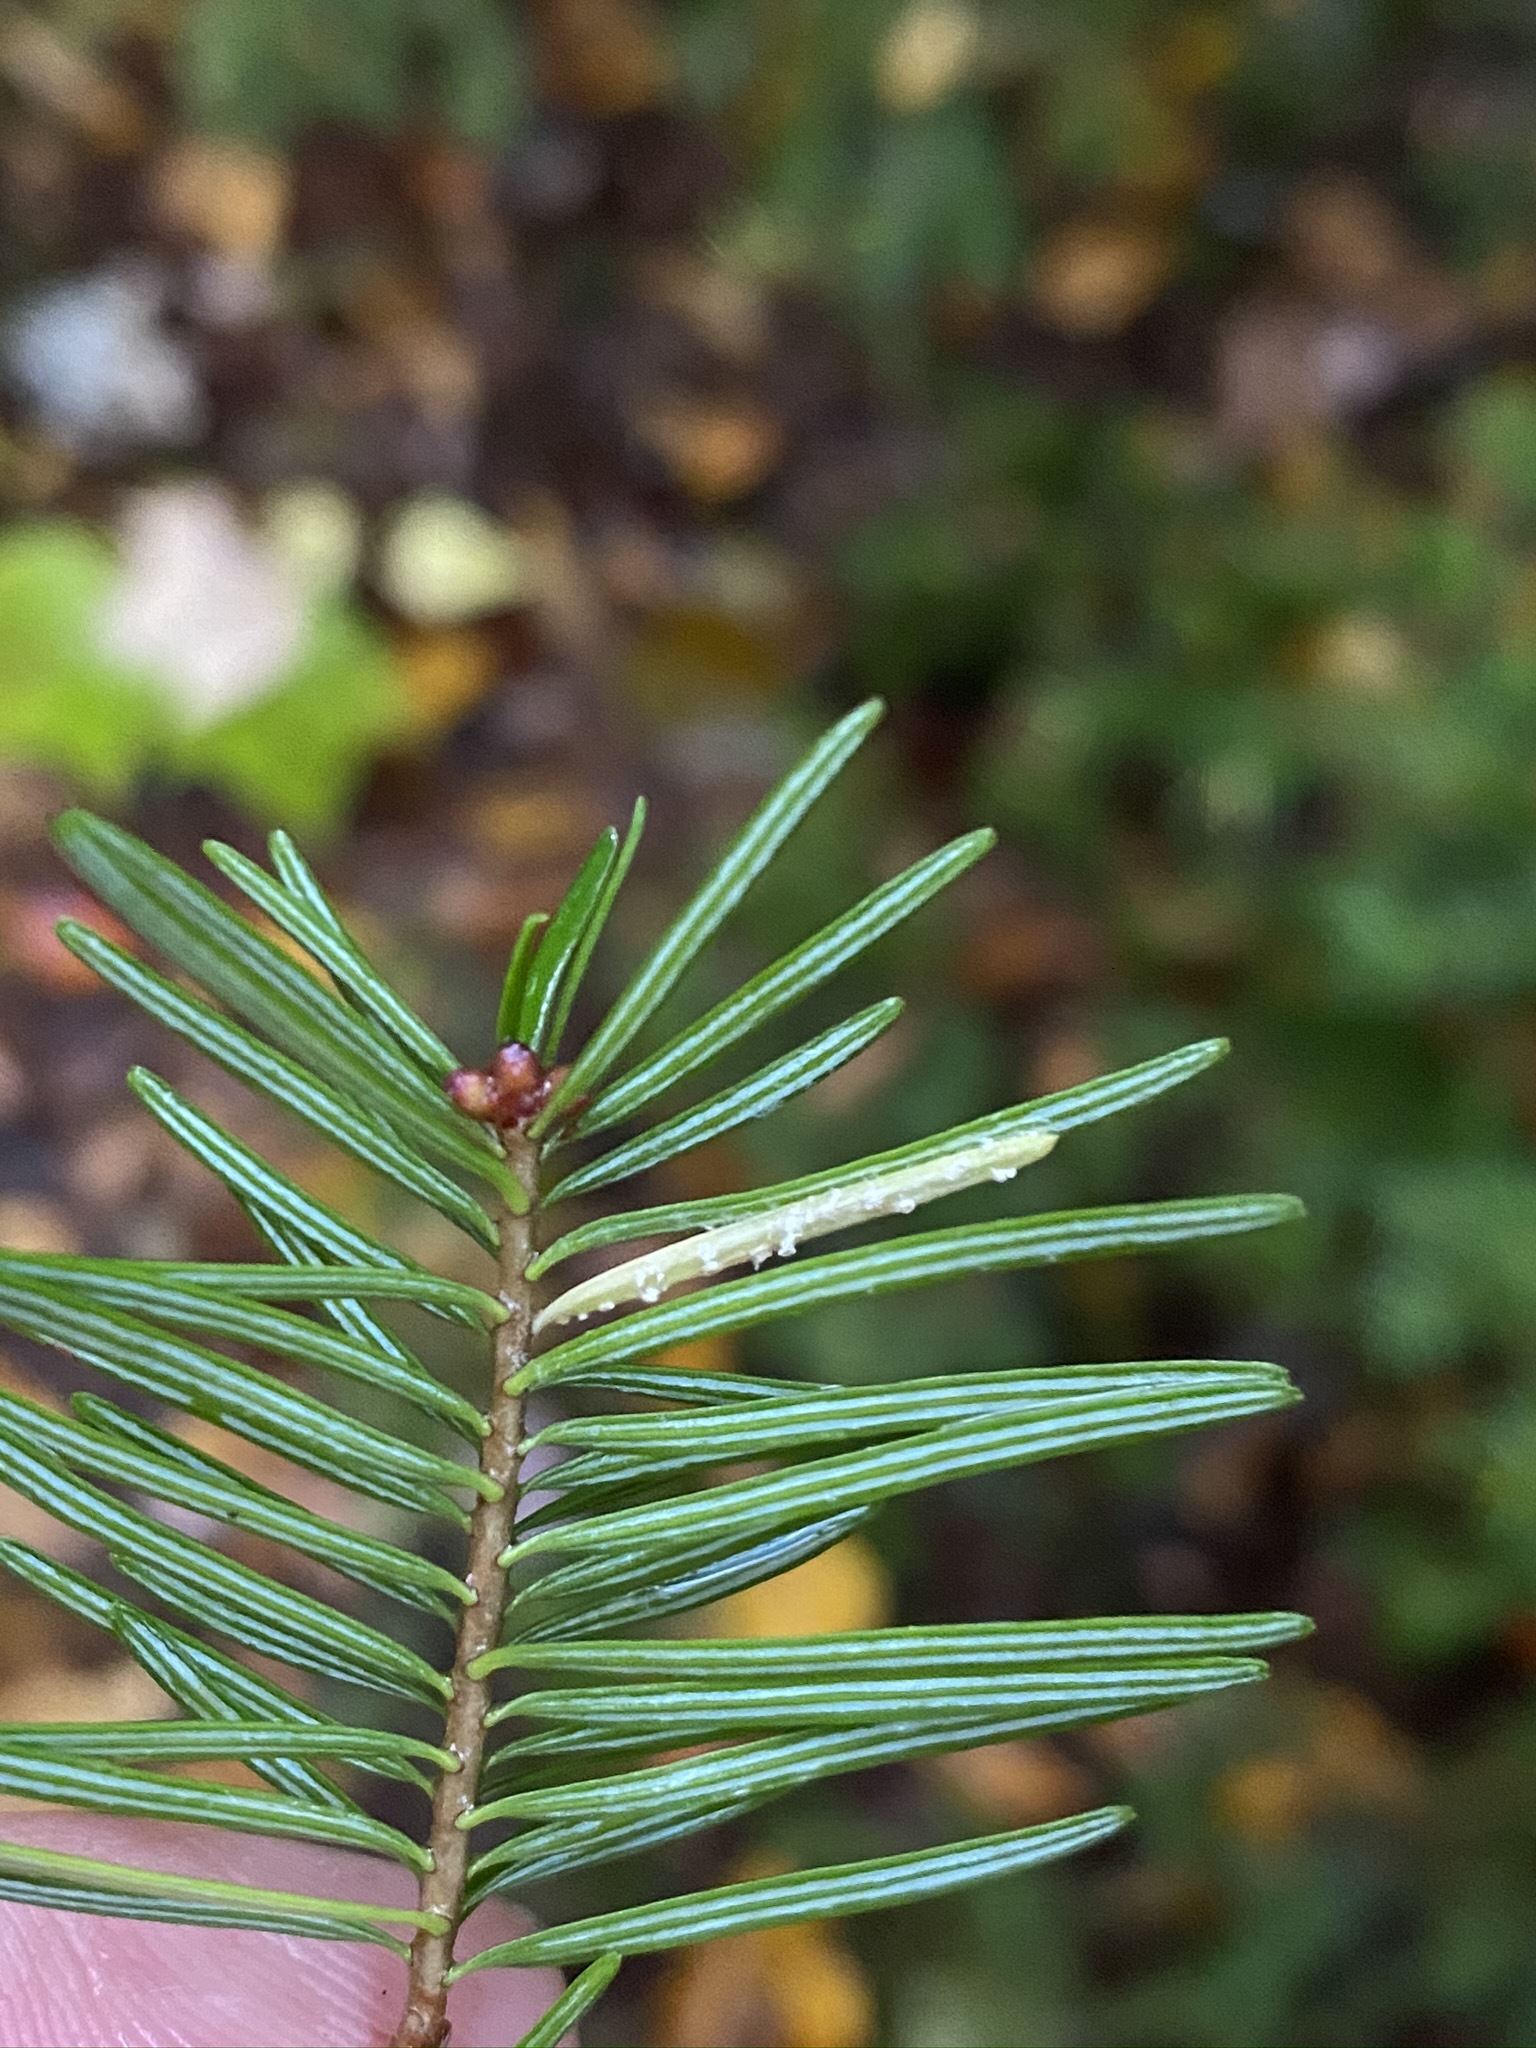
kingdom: Fungi
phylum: Basidiomycota
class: Pucciniomycetes
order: Pucciniales
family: Pucciniastraceae
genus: Calyptospora
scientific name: Calyptospora columnaris
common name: Huckleberry broom rust fungus
